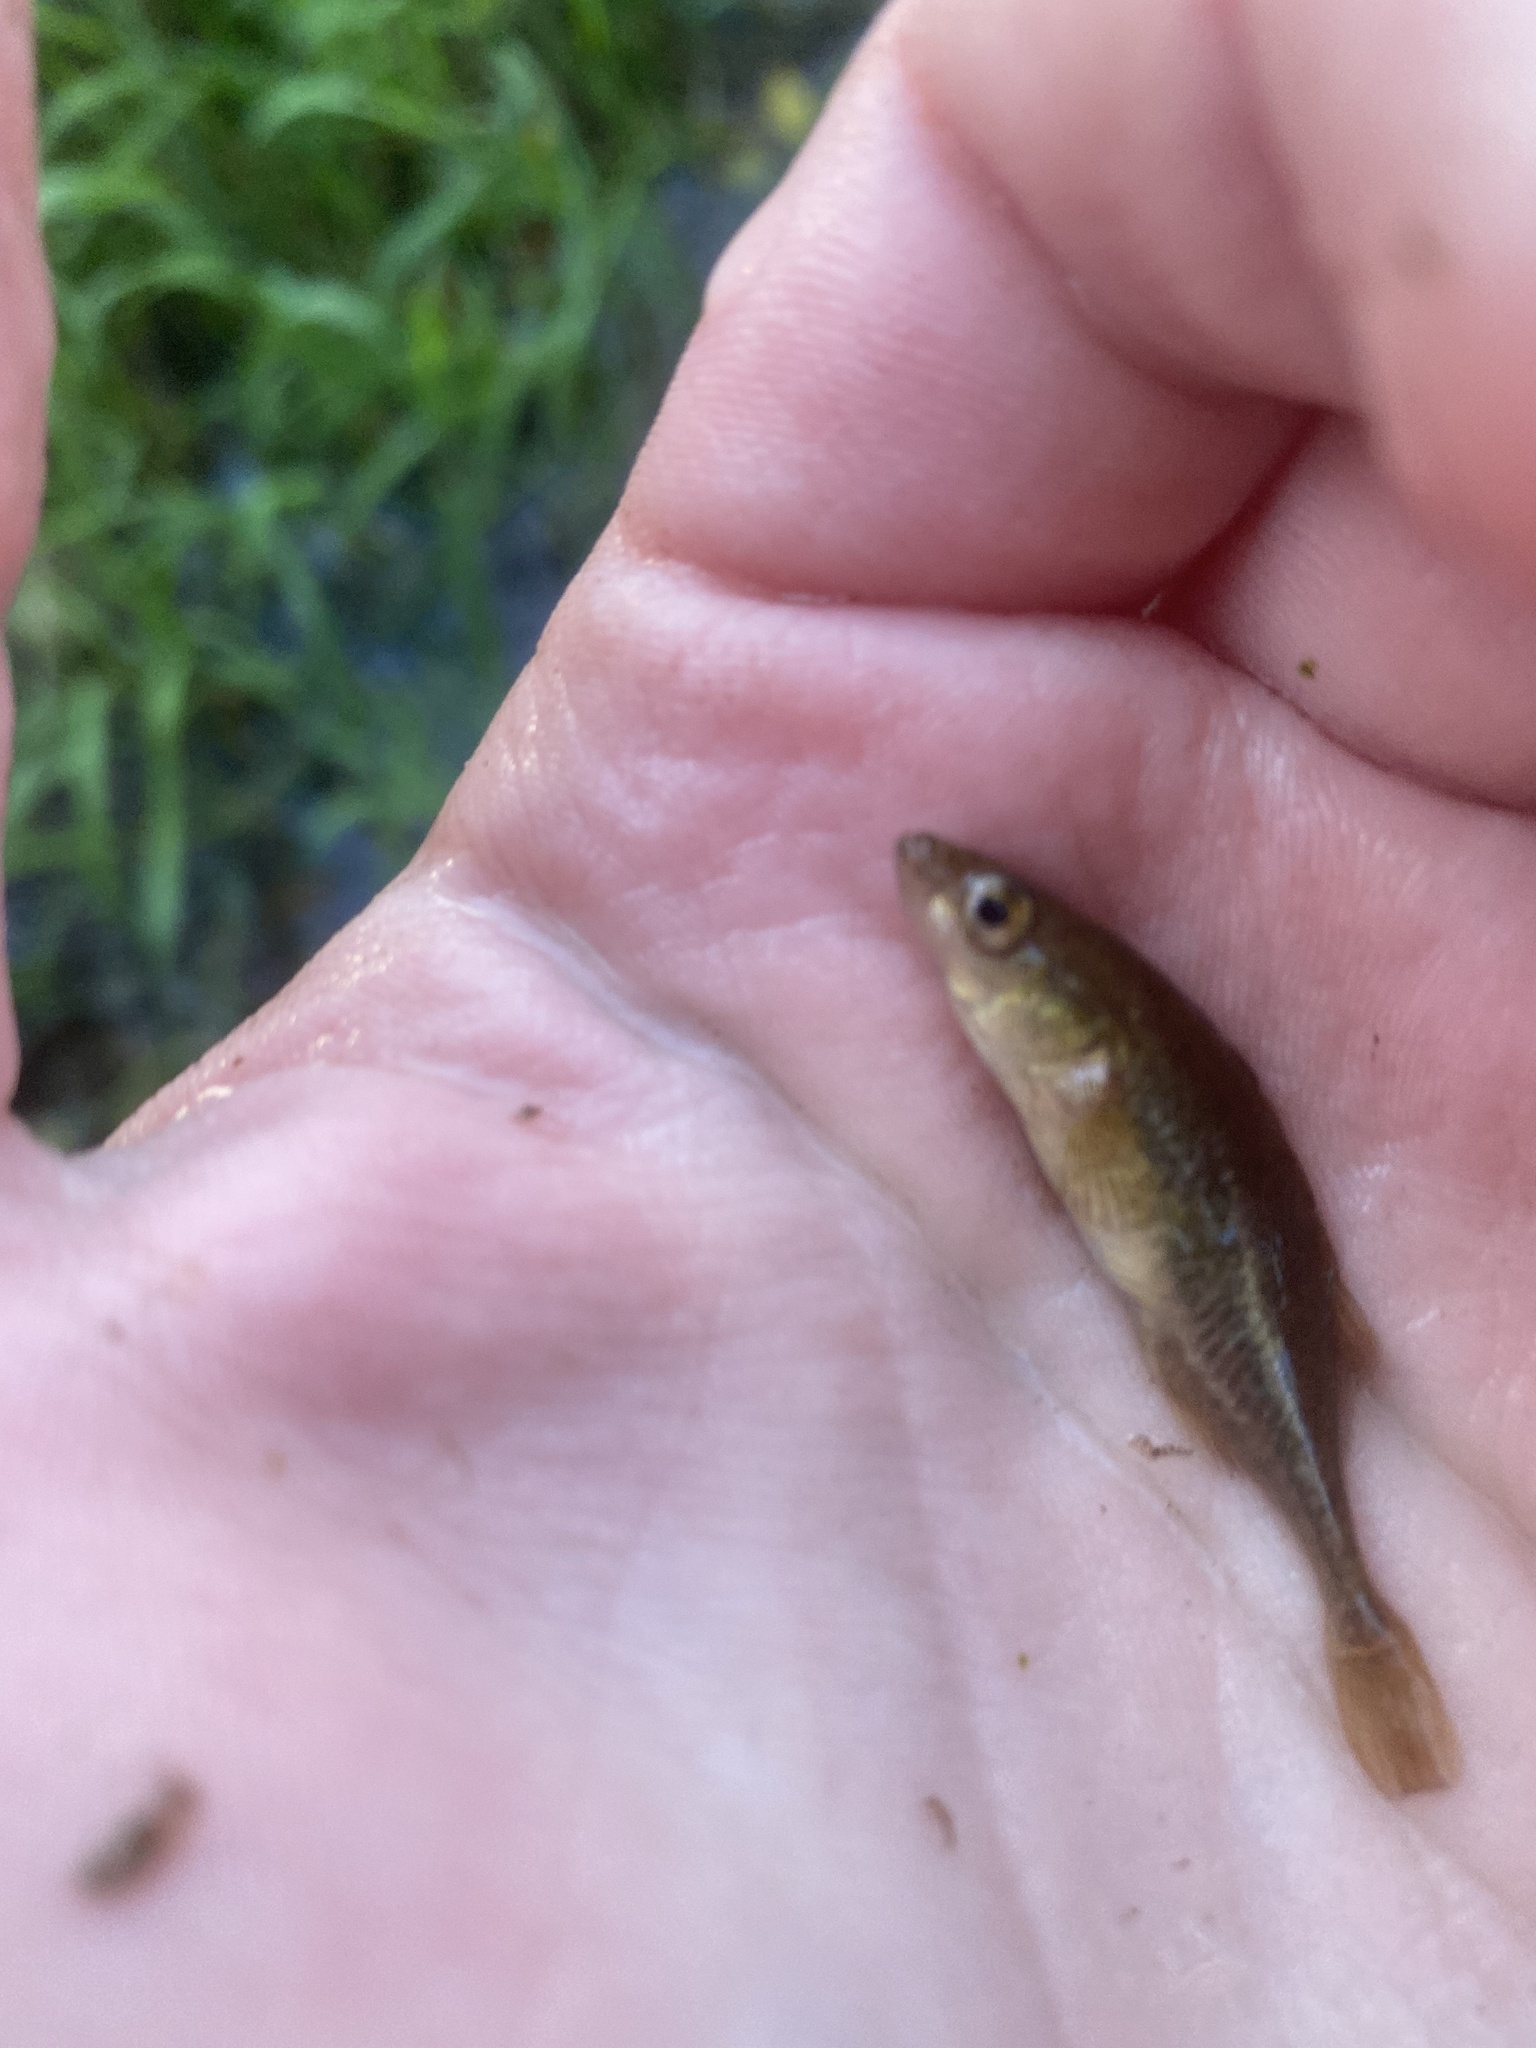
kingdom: Animalia
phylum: Chordata
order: Gasterosteiformes
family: Gasterosteidae
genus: Culaea
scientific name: Culaea inconstans
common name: Brook stickleback
